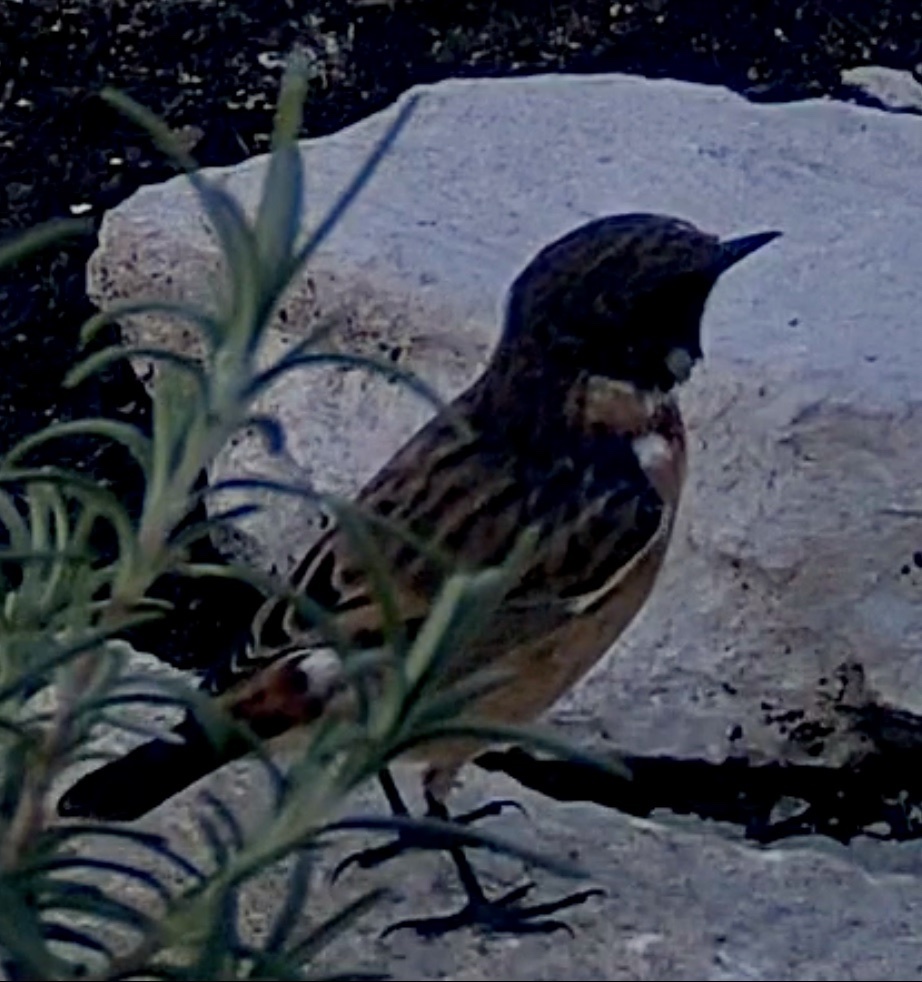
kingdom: Animalia
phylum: Chordata
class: Aves
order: Passeriformes
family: Muscicapidae
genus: Saxicola
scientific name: Saxicola rubicola
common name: European stonechat
